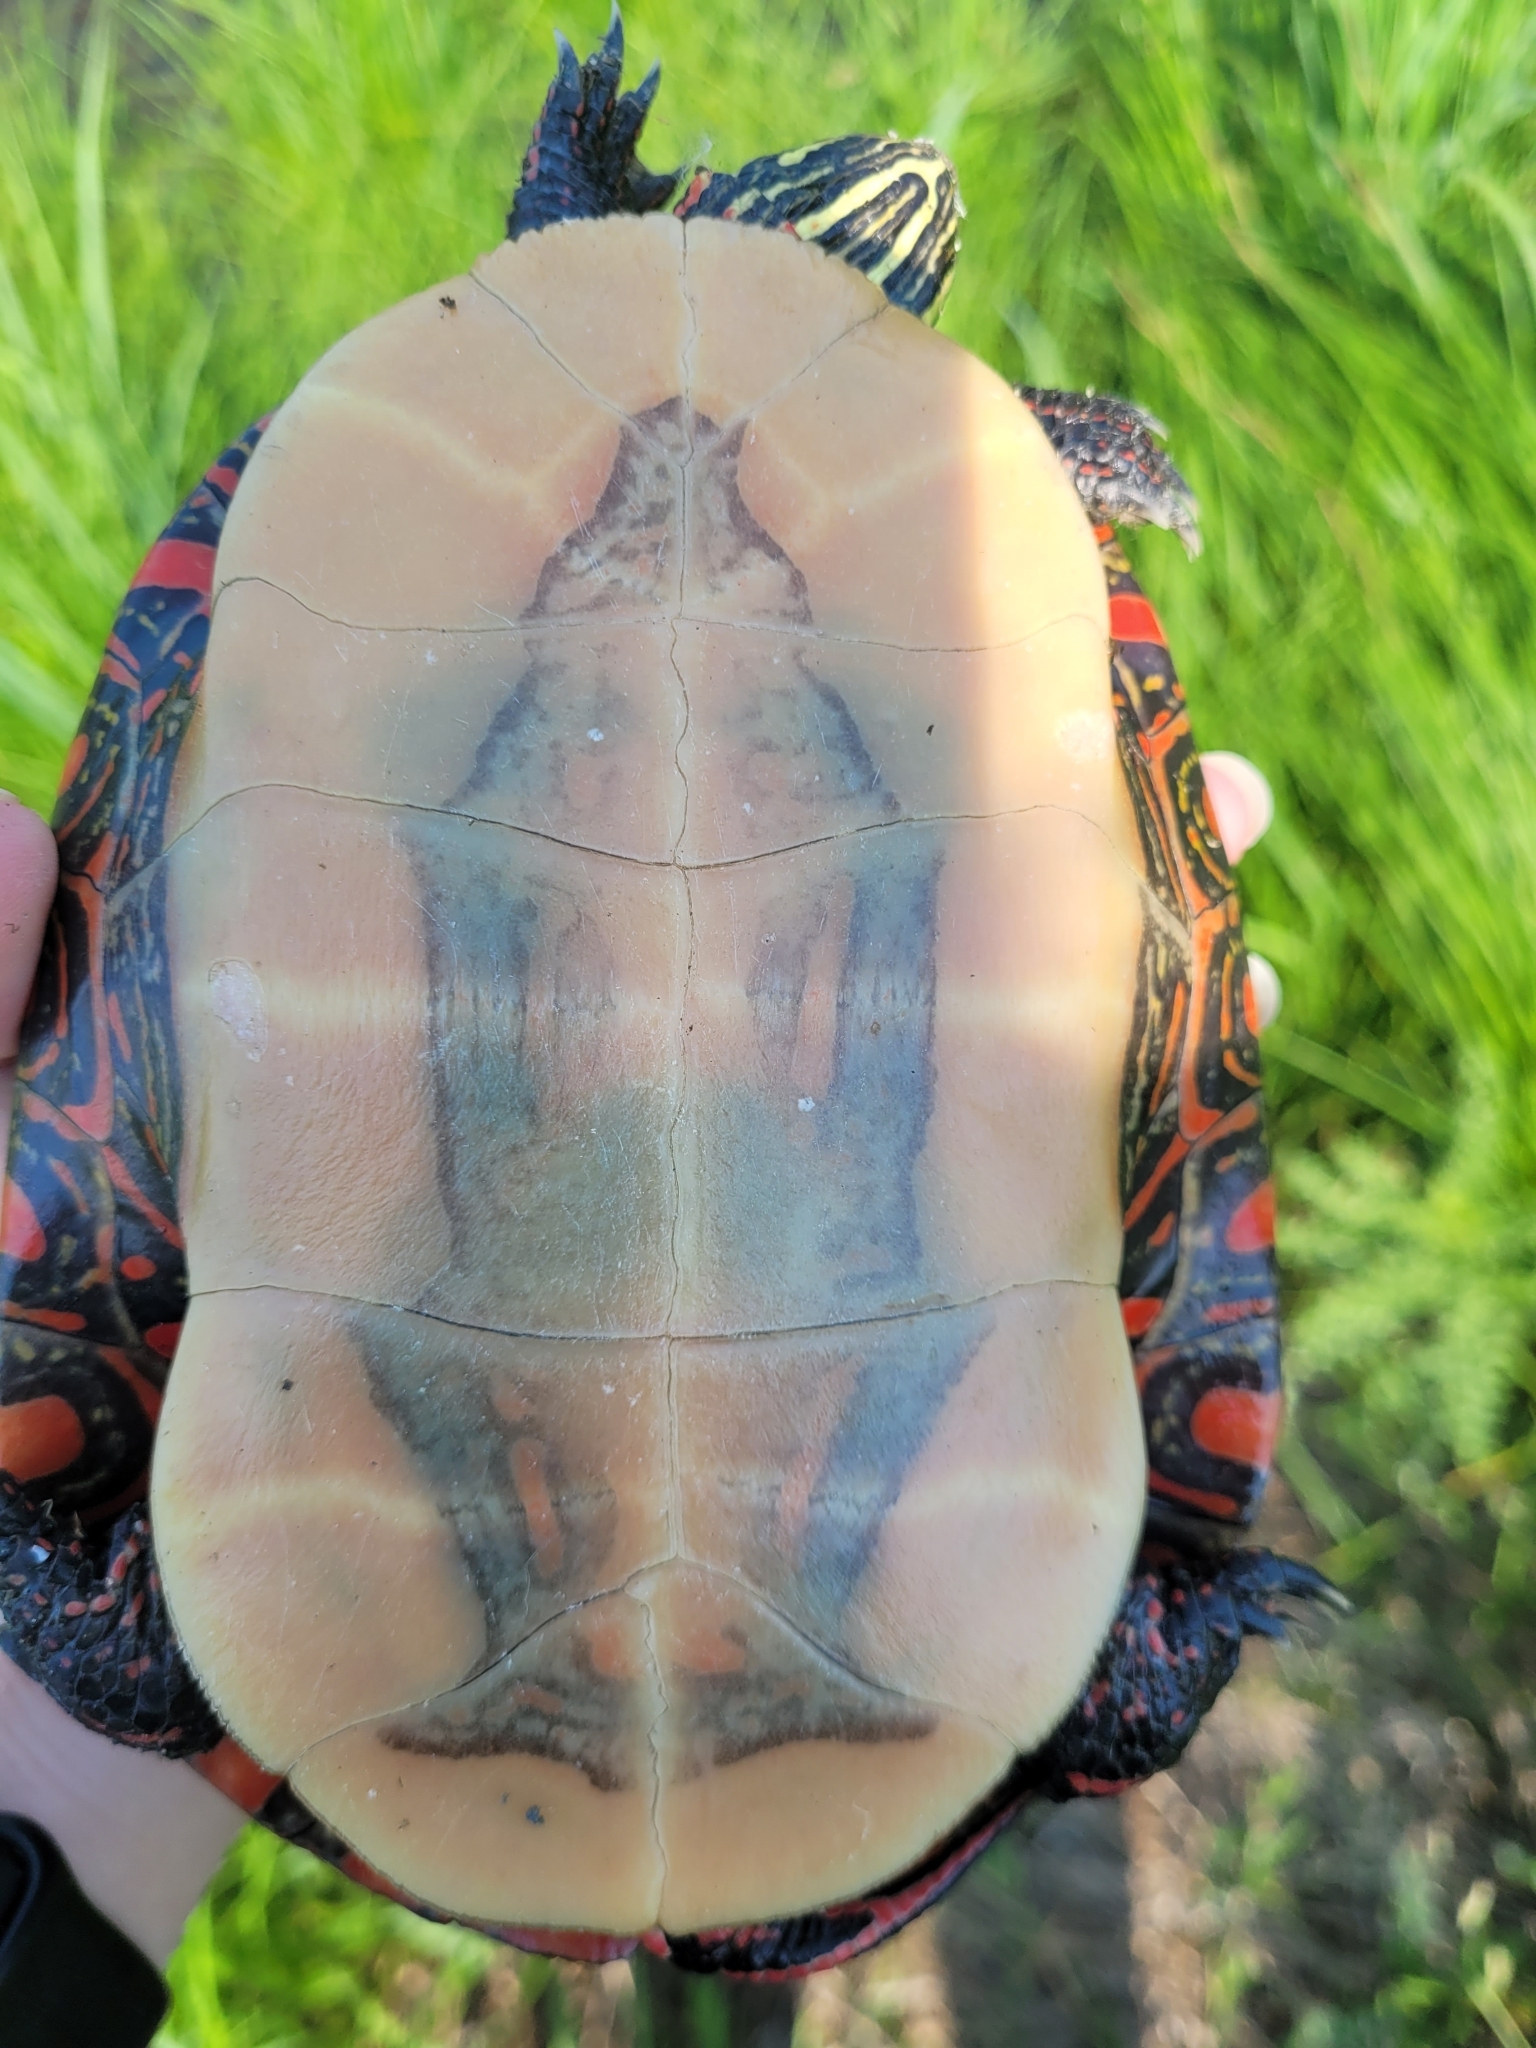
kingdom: Animalia
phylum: Chordata
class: Testudines
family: Emydidae
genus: Chrysemys
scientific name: Chrysemys picta
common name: Painted turtle
